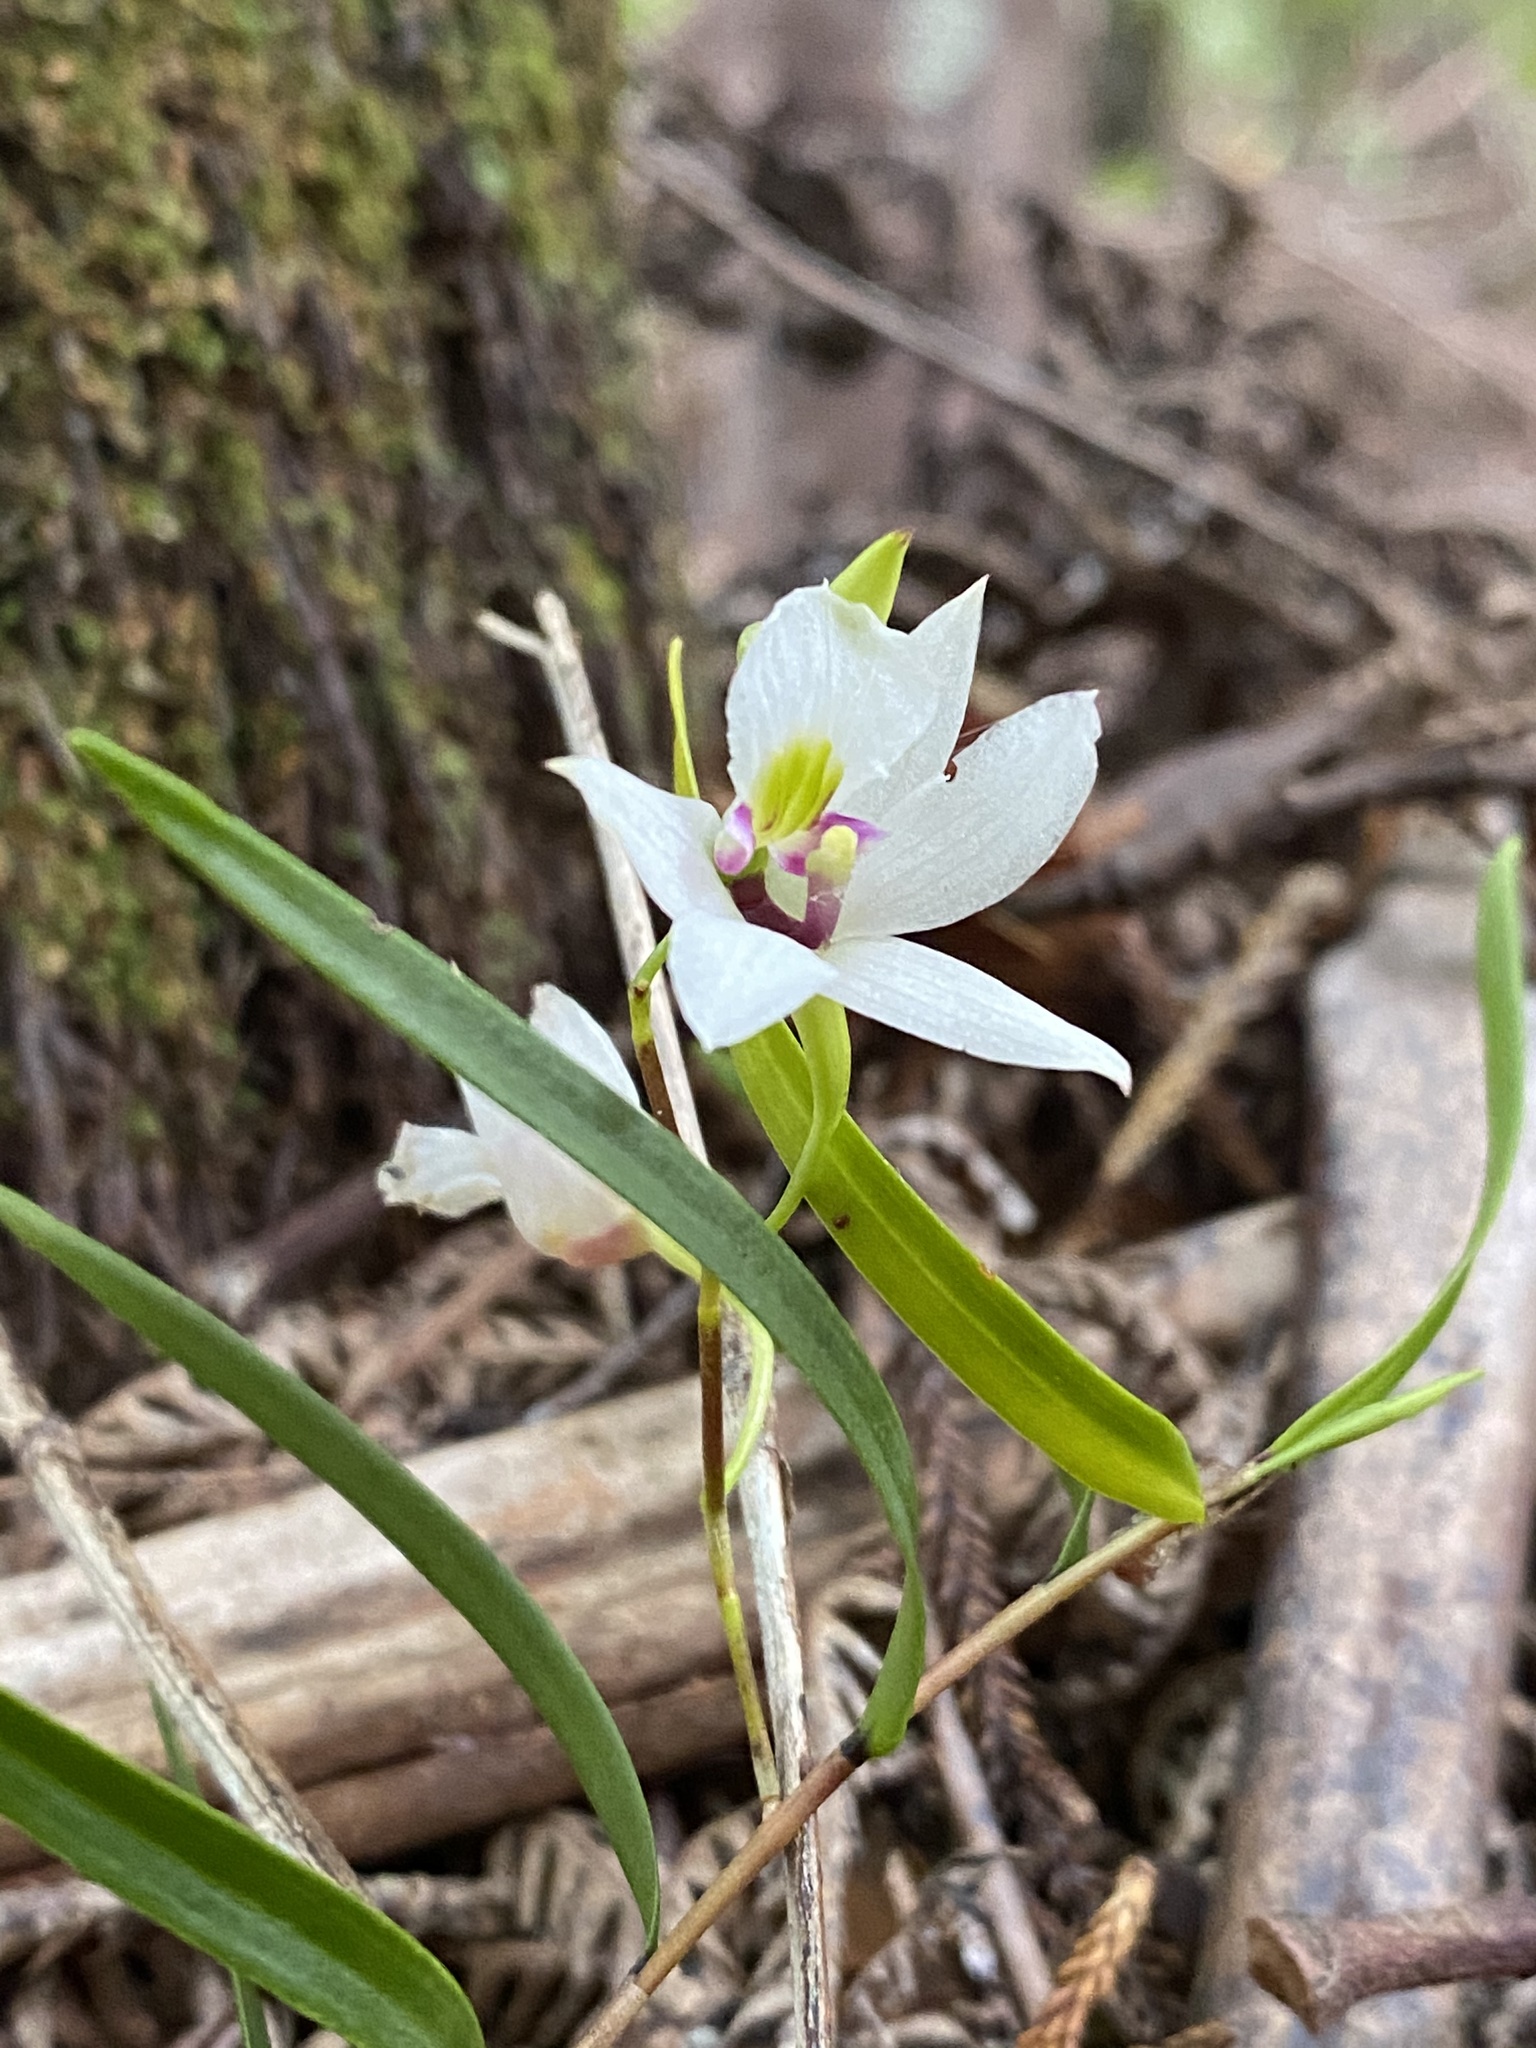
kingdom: Plantae
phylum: Tracheophyta
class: Liliopsida
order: Asparagales
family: Orchidaceae
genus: Dendrobium
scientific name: Dendrobium cunninghamii
